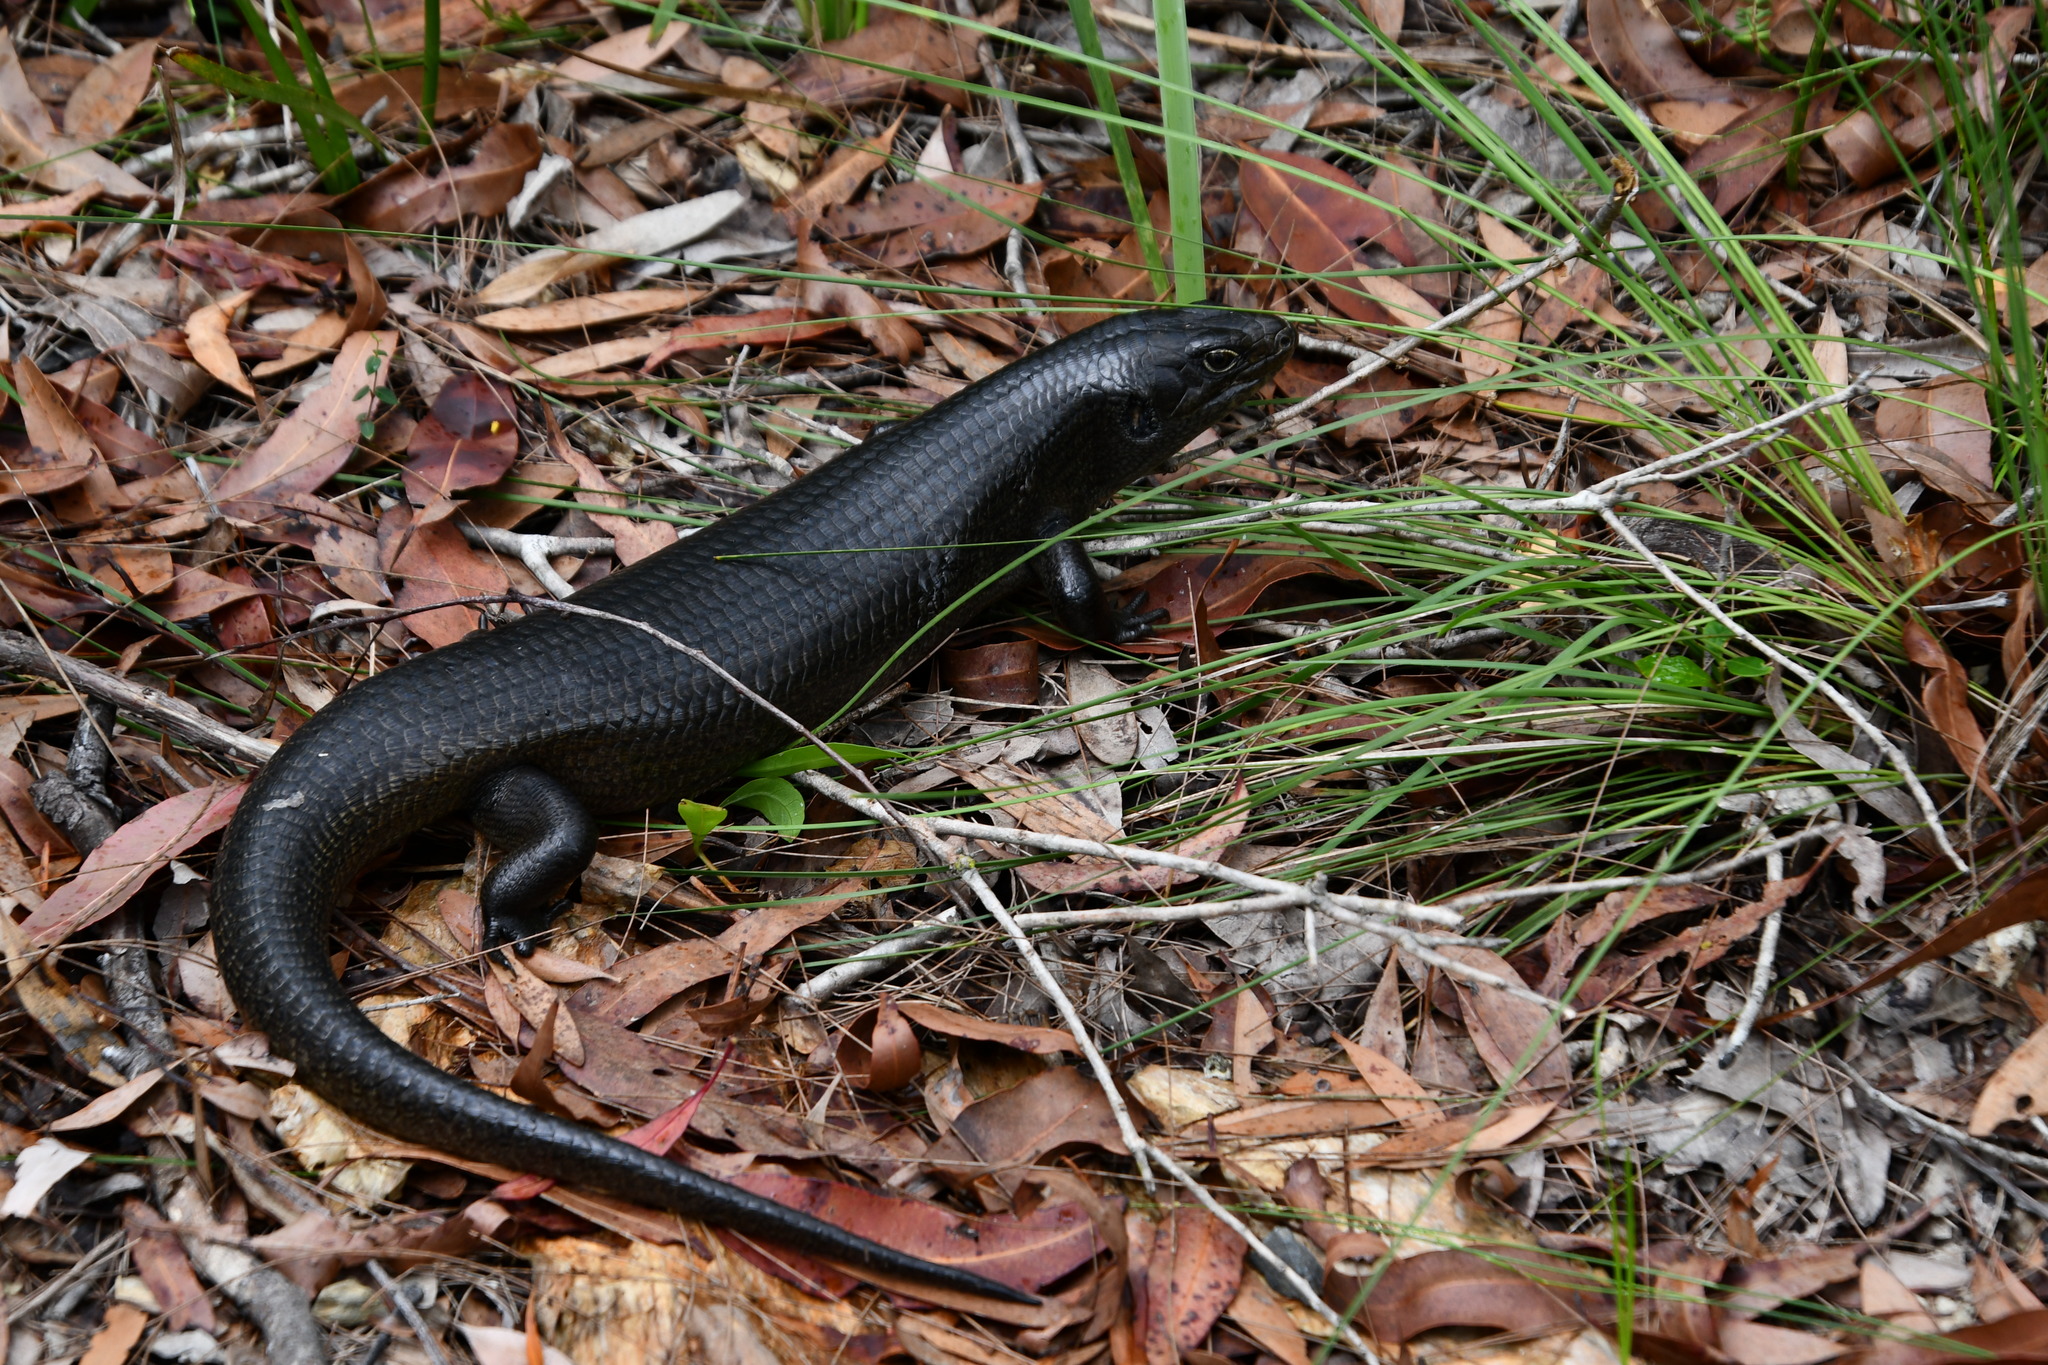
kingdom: Animalia
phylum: Chordata
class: Squamata
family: Scincidae
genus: Bellatorias
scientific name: Bellatorias major
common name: Land mullet
